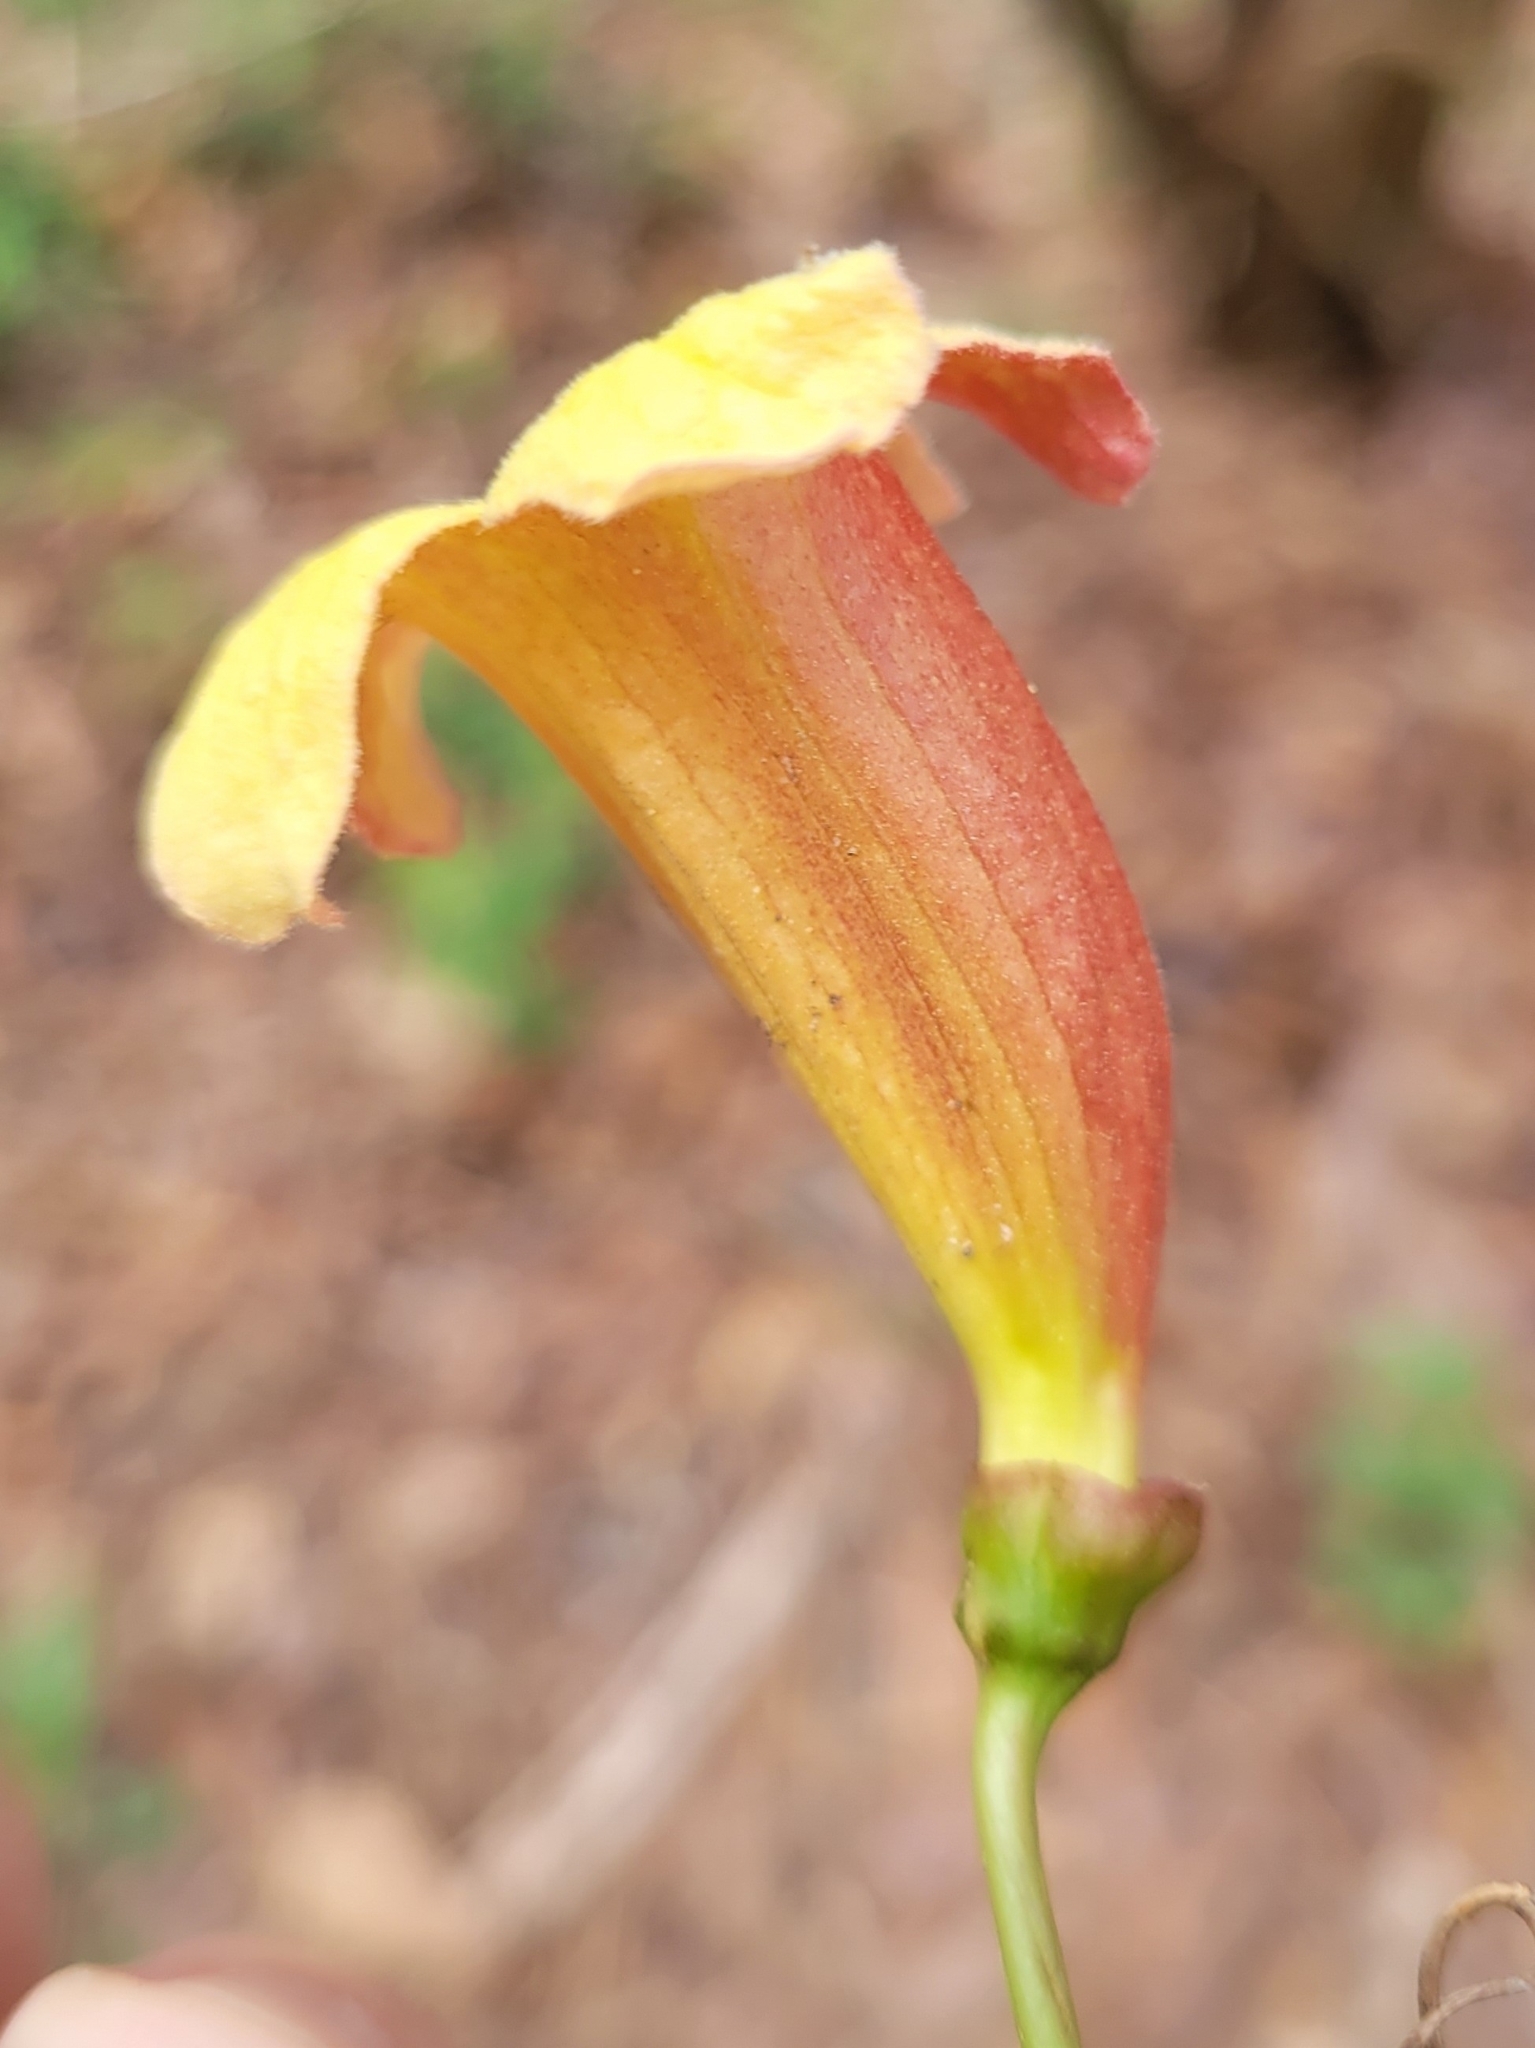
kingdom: Plantae
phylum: Tracheophyta
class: Magnoliopsida
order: Lamiales
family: Bignoniaceae
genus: Bignonia
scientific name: Bignonia capreolata
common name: Crossvine
